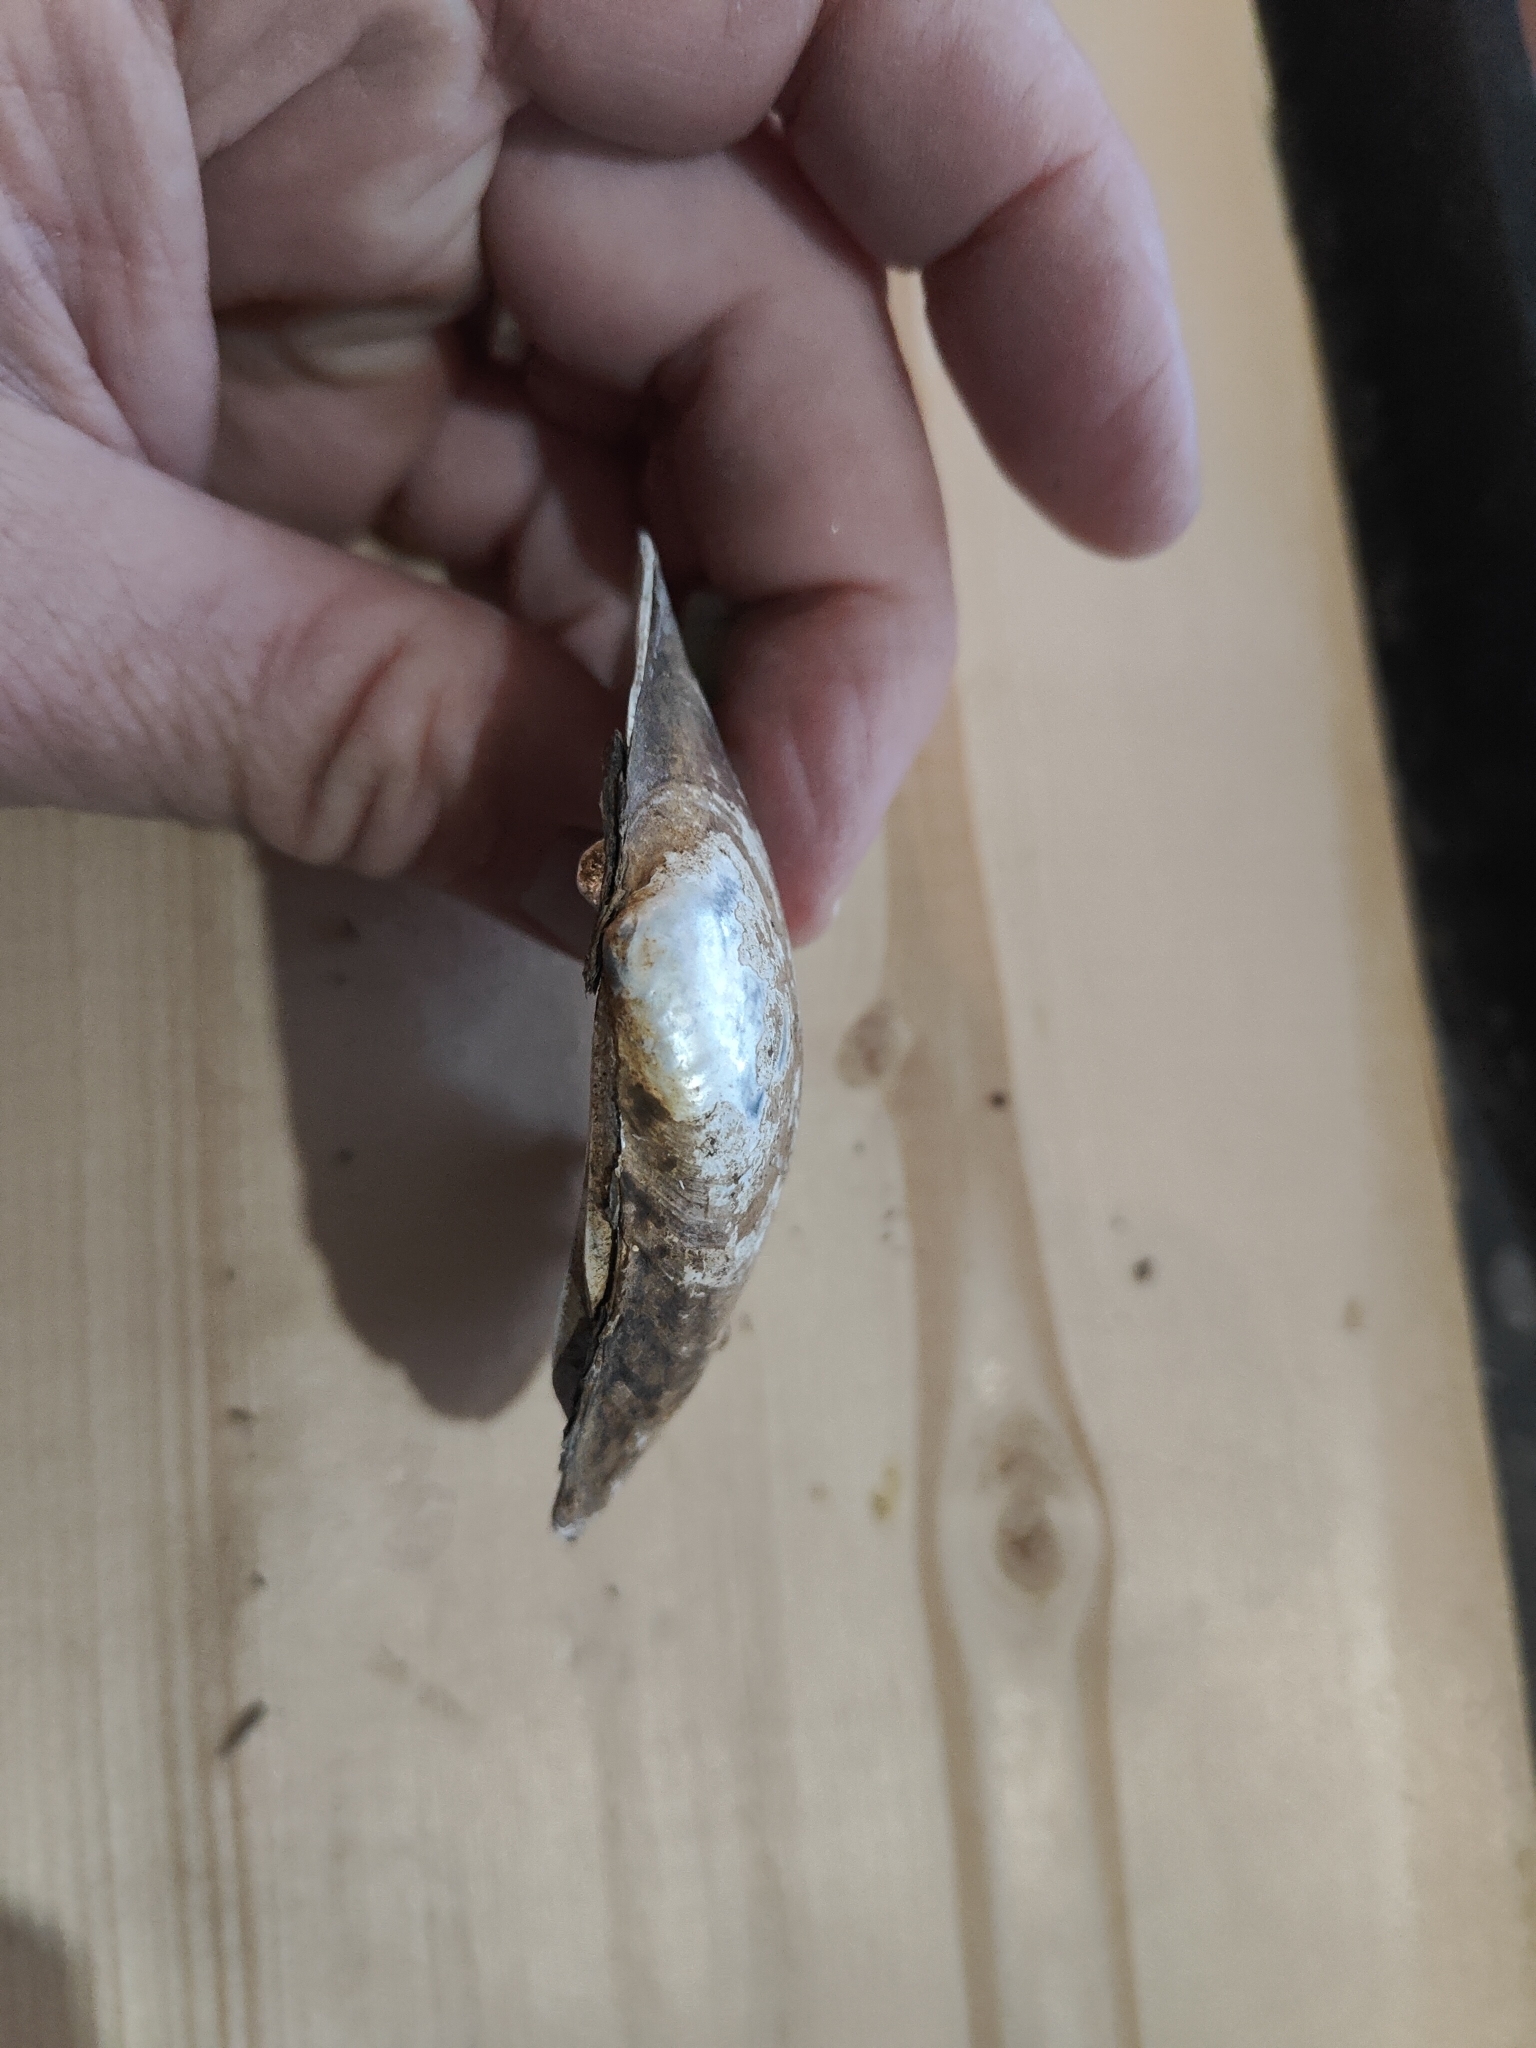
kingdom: Animalia
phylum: Mollusca
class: Bivalvia
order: Unionida
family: Unionidae
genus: Lampsilis
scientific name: Lampsilis cardium
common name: Plain pocketbook
